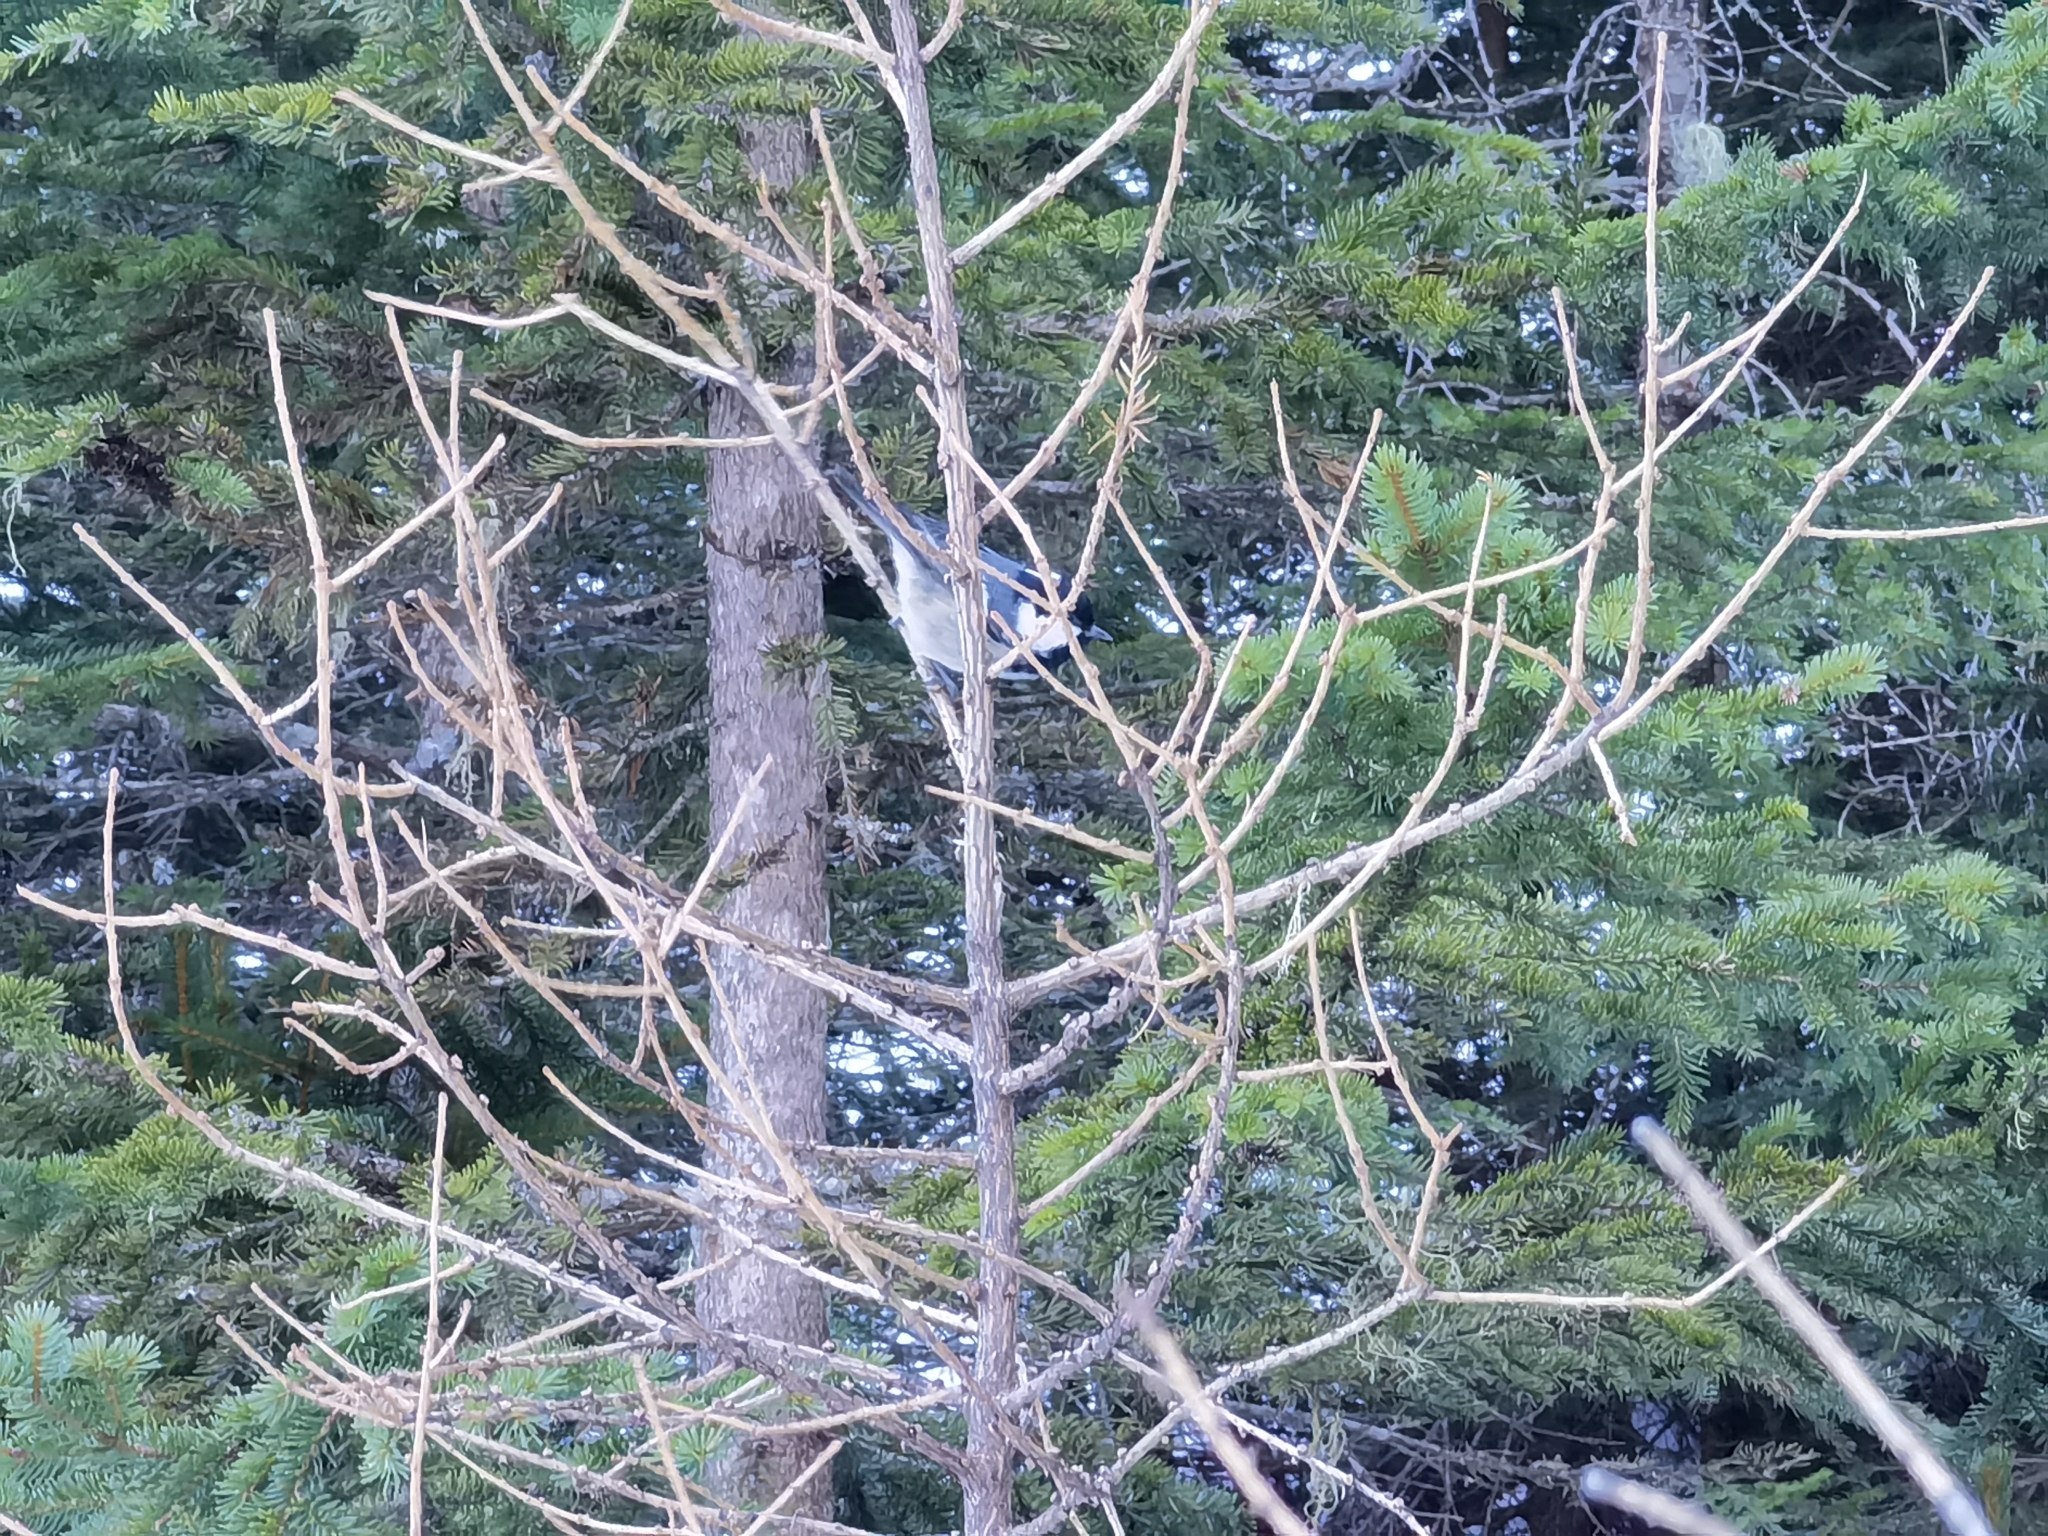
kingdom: Animalia
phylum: Chordata
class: Aves
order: Passeriformes
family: Paridae
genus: Periparus
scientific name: Periparus ater
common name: Coal tit
